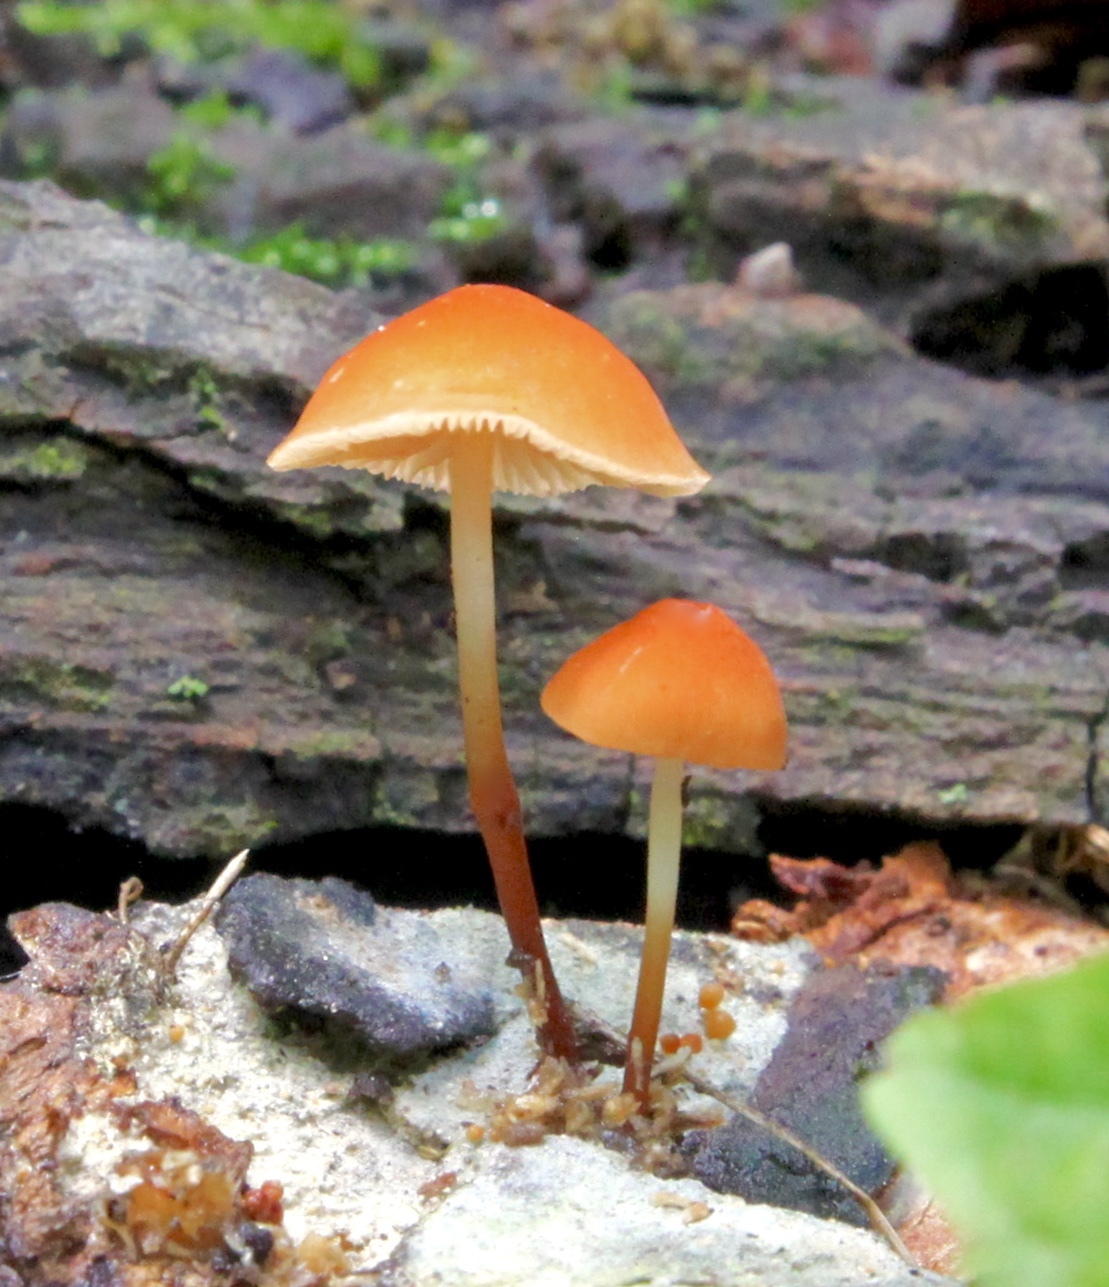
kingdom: Fungi
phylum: Basidiomycota
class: Agaricomycetes
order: Agaricales
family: Marasmiaceae
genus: Marasmius
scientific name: Marasmius sullivantii
